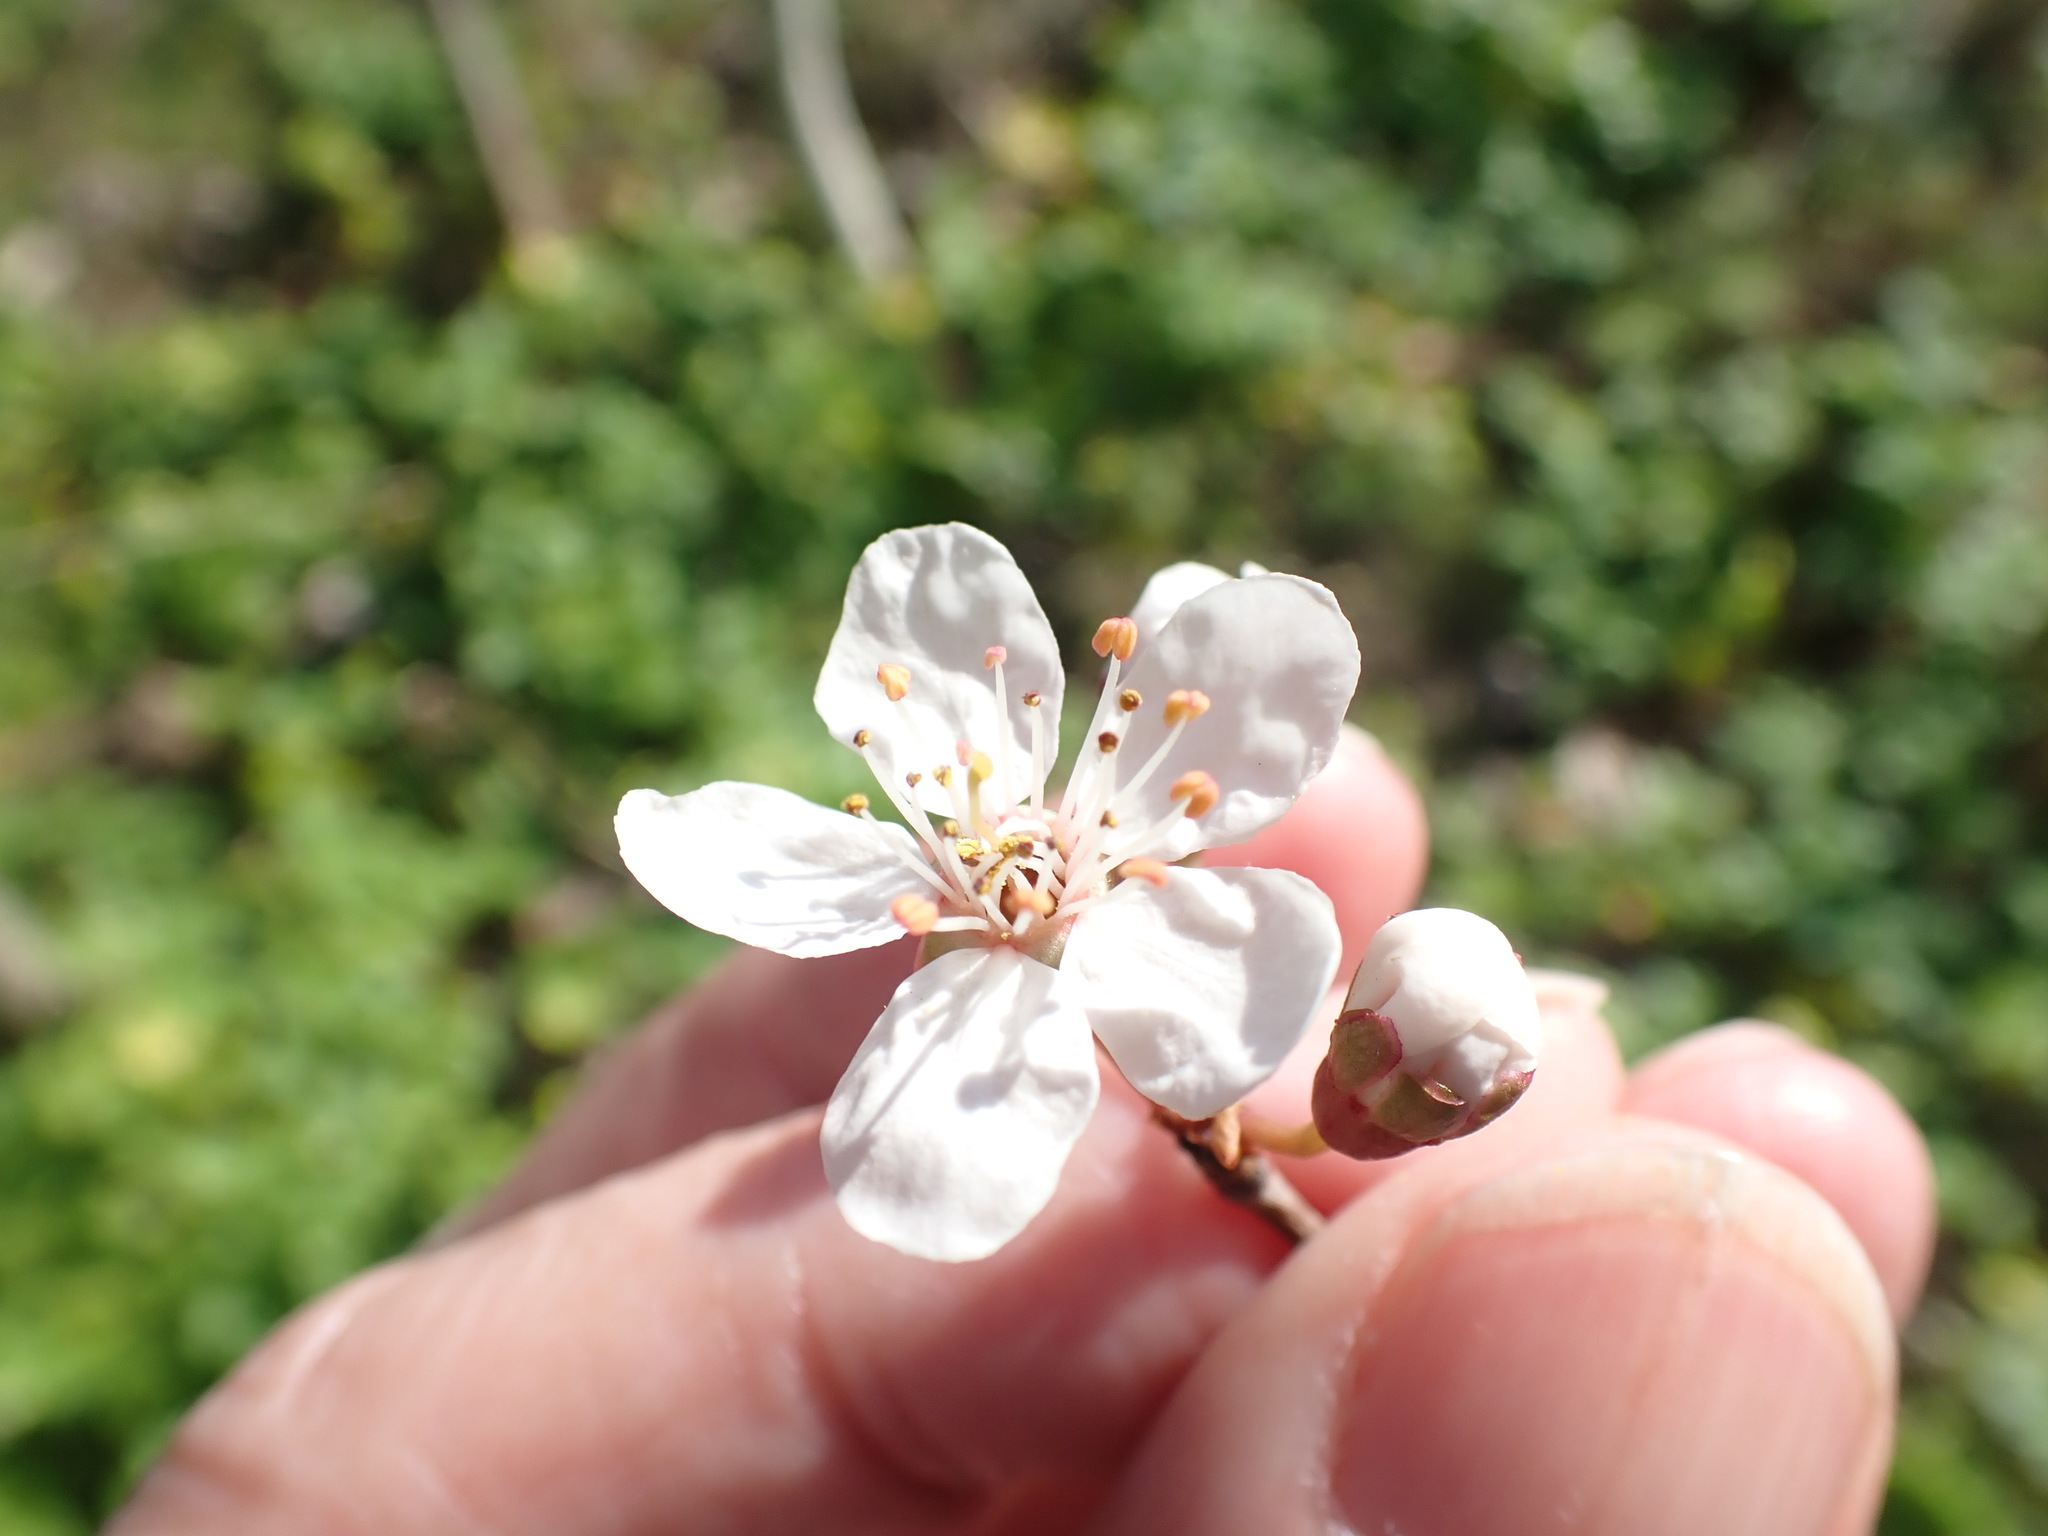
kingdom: Plantae
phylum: Tracheophyta
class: Magnoliopsida
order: Rosales
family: Rosaceae
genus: Prunus
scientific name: Prunus cerasifera
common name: Cherry plum
